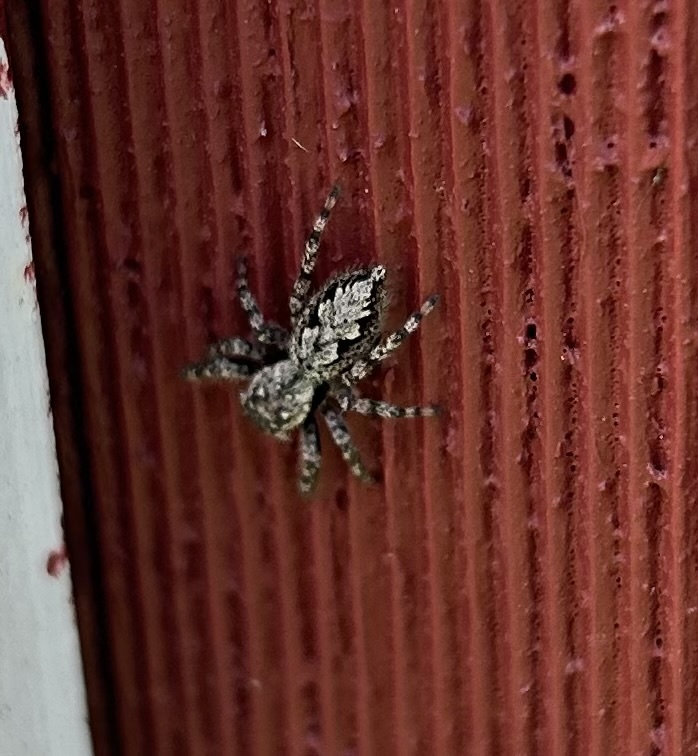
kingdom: Animalia
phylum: Arthropoda
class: Arachnida
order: Araneae
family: Salticidae
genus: Platycryptus
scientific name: Platycryptus undatus
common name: Tan jumping spider
